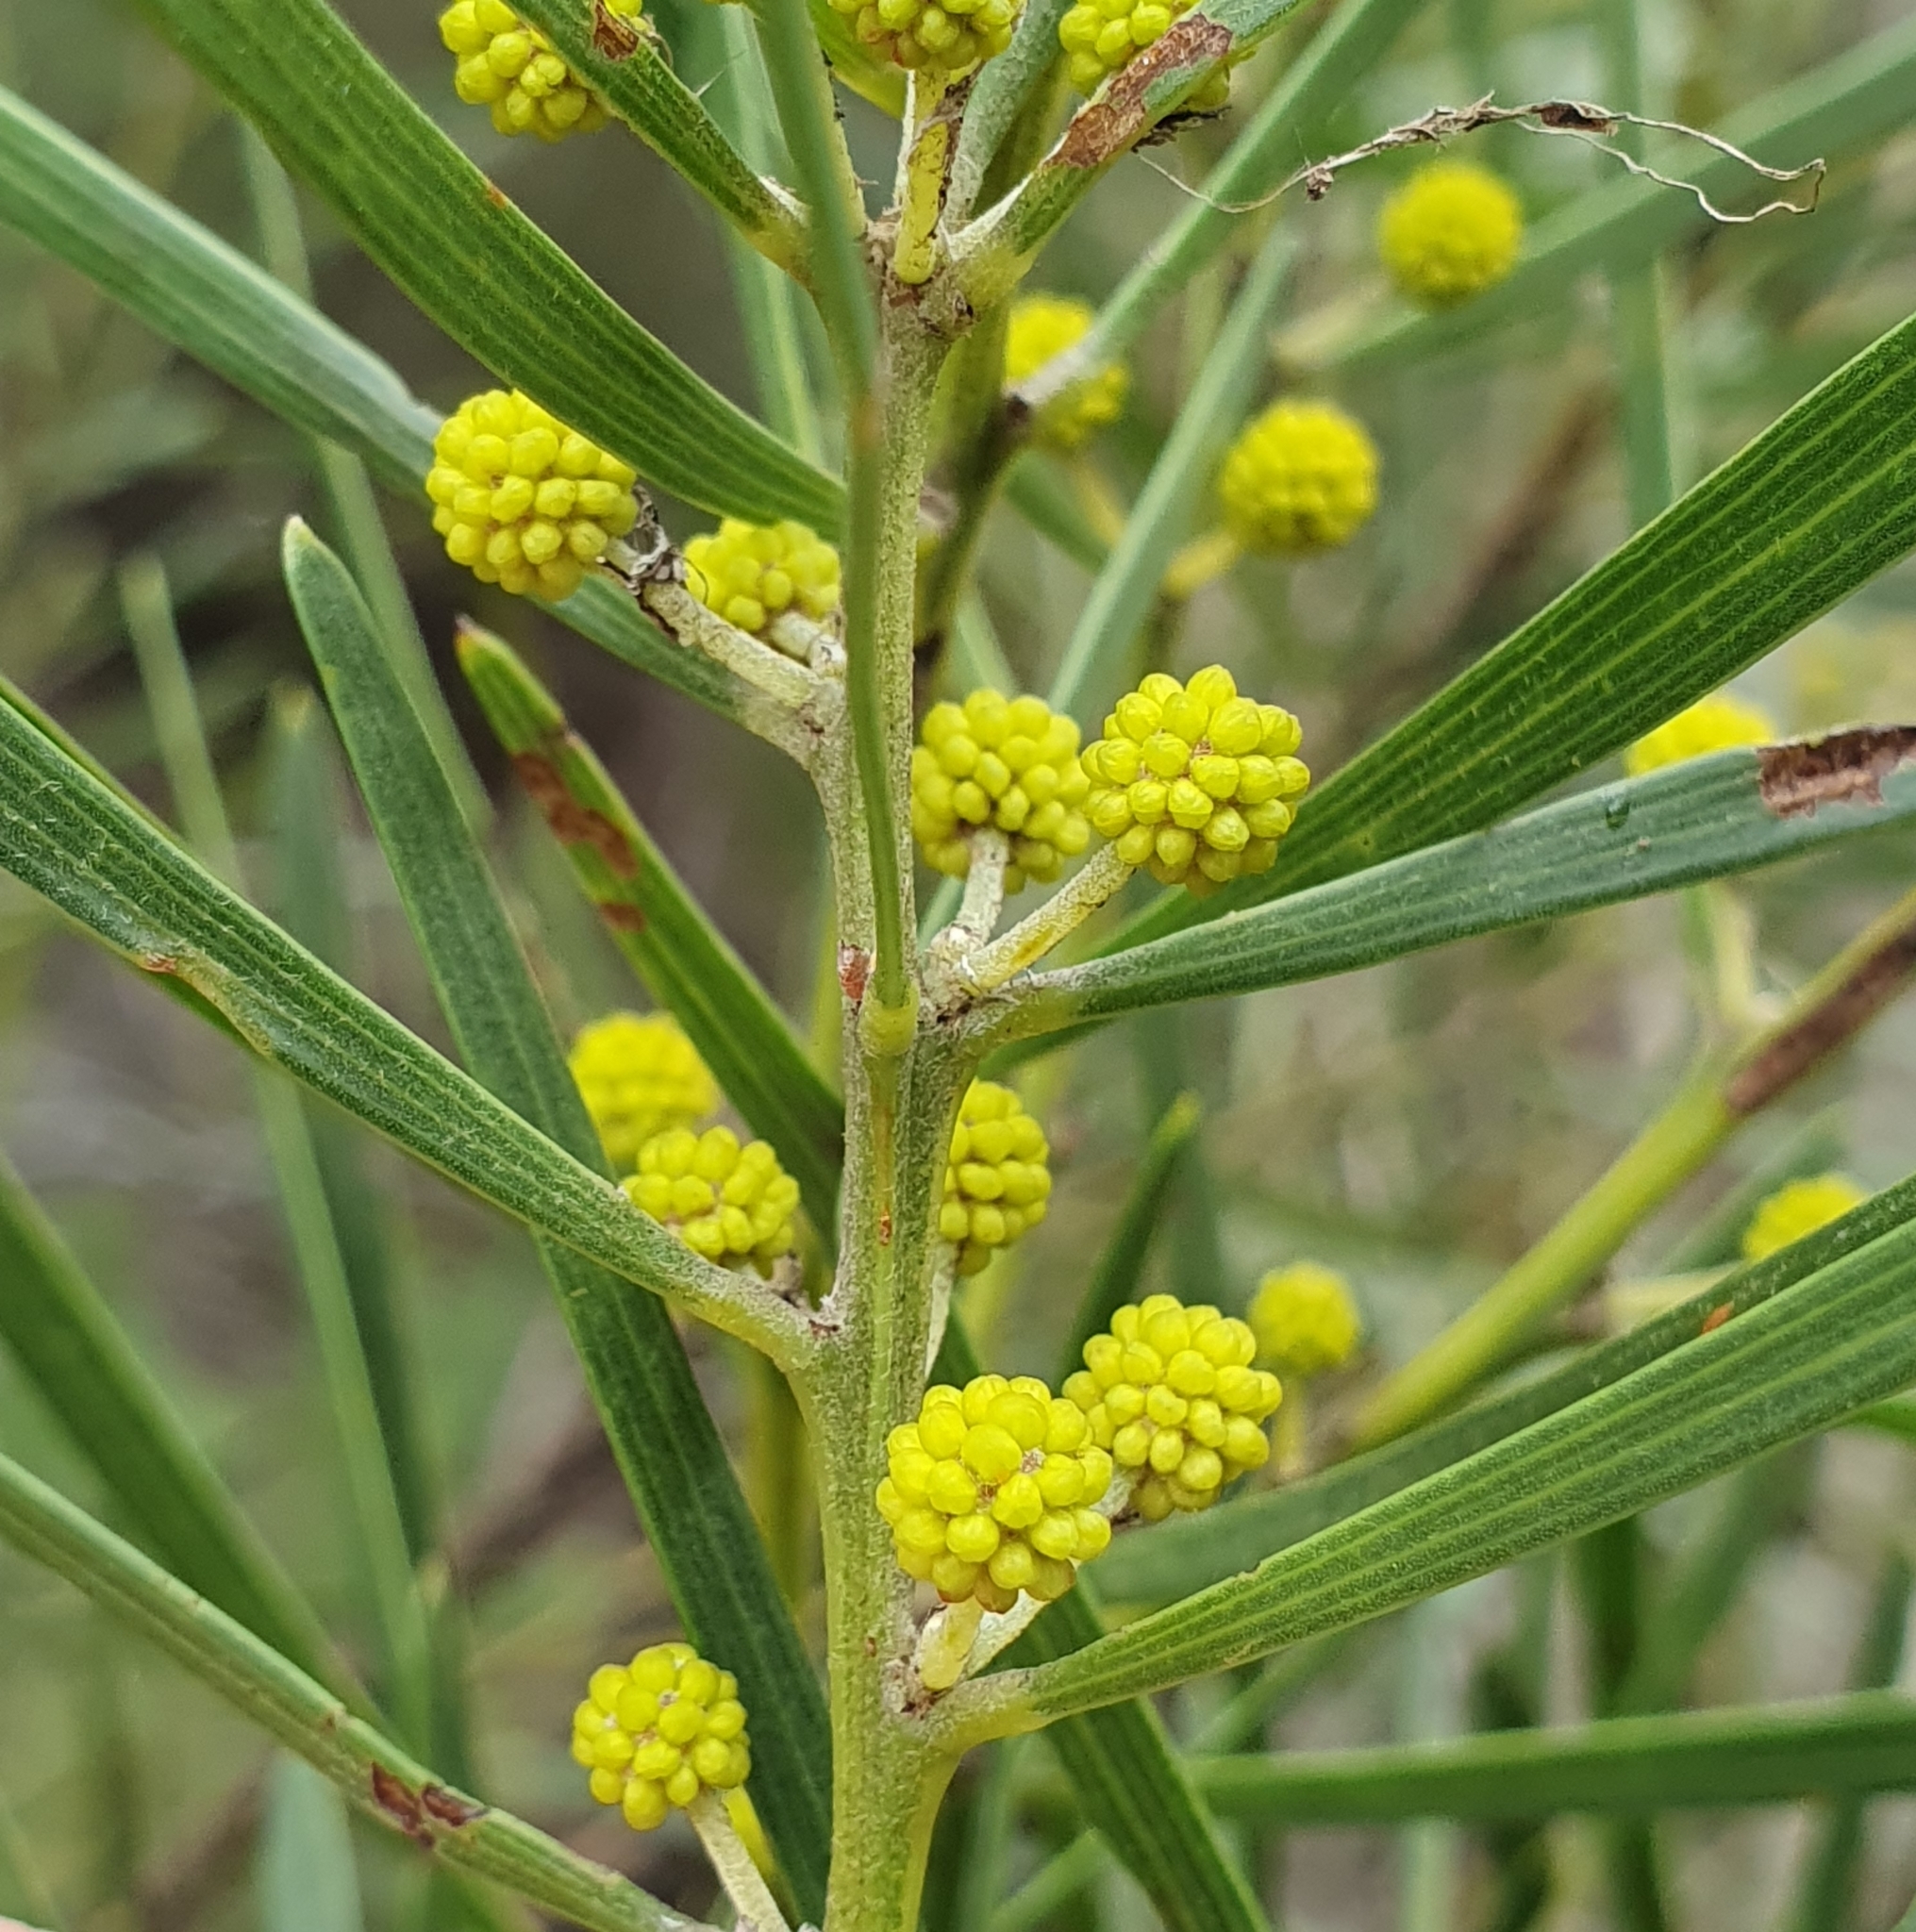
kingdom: Plantae
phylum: Tracheophyta
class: Magnoliopsida
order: Fabales
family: Fabaceae
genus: Acacia
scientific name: Acacia elongata
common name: Swamp wattle
